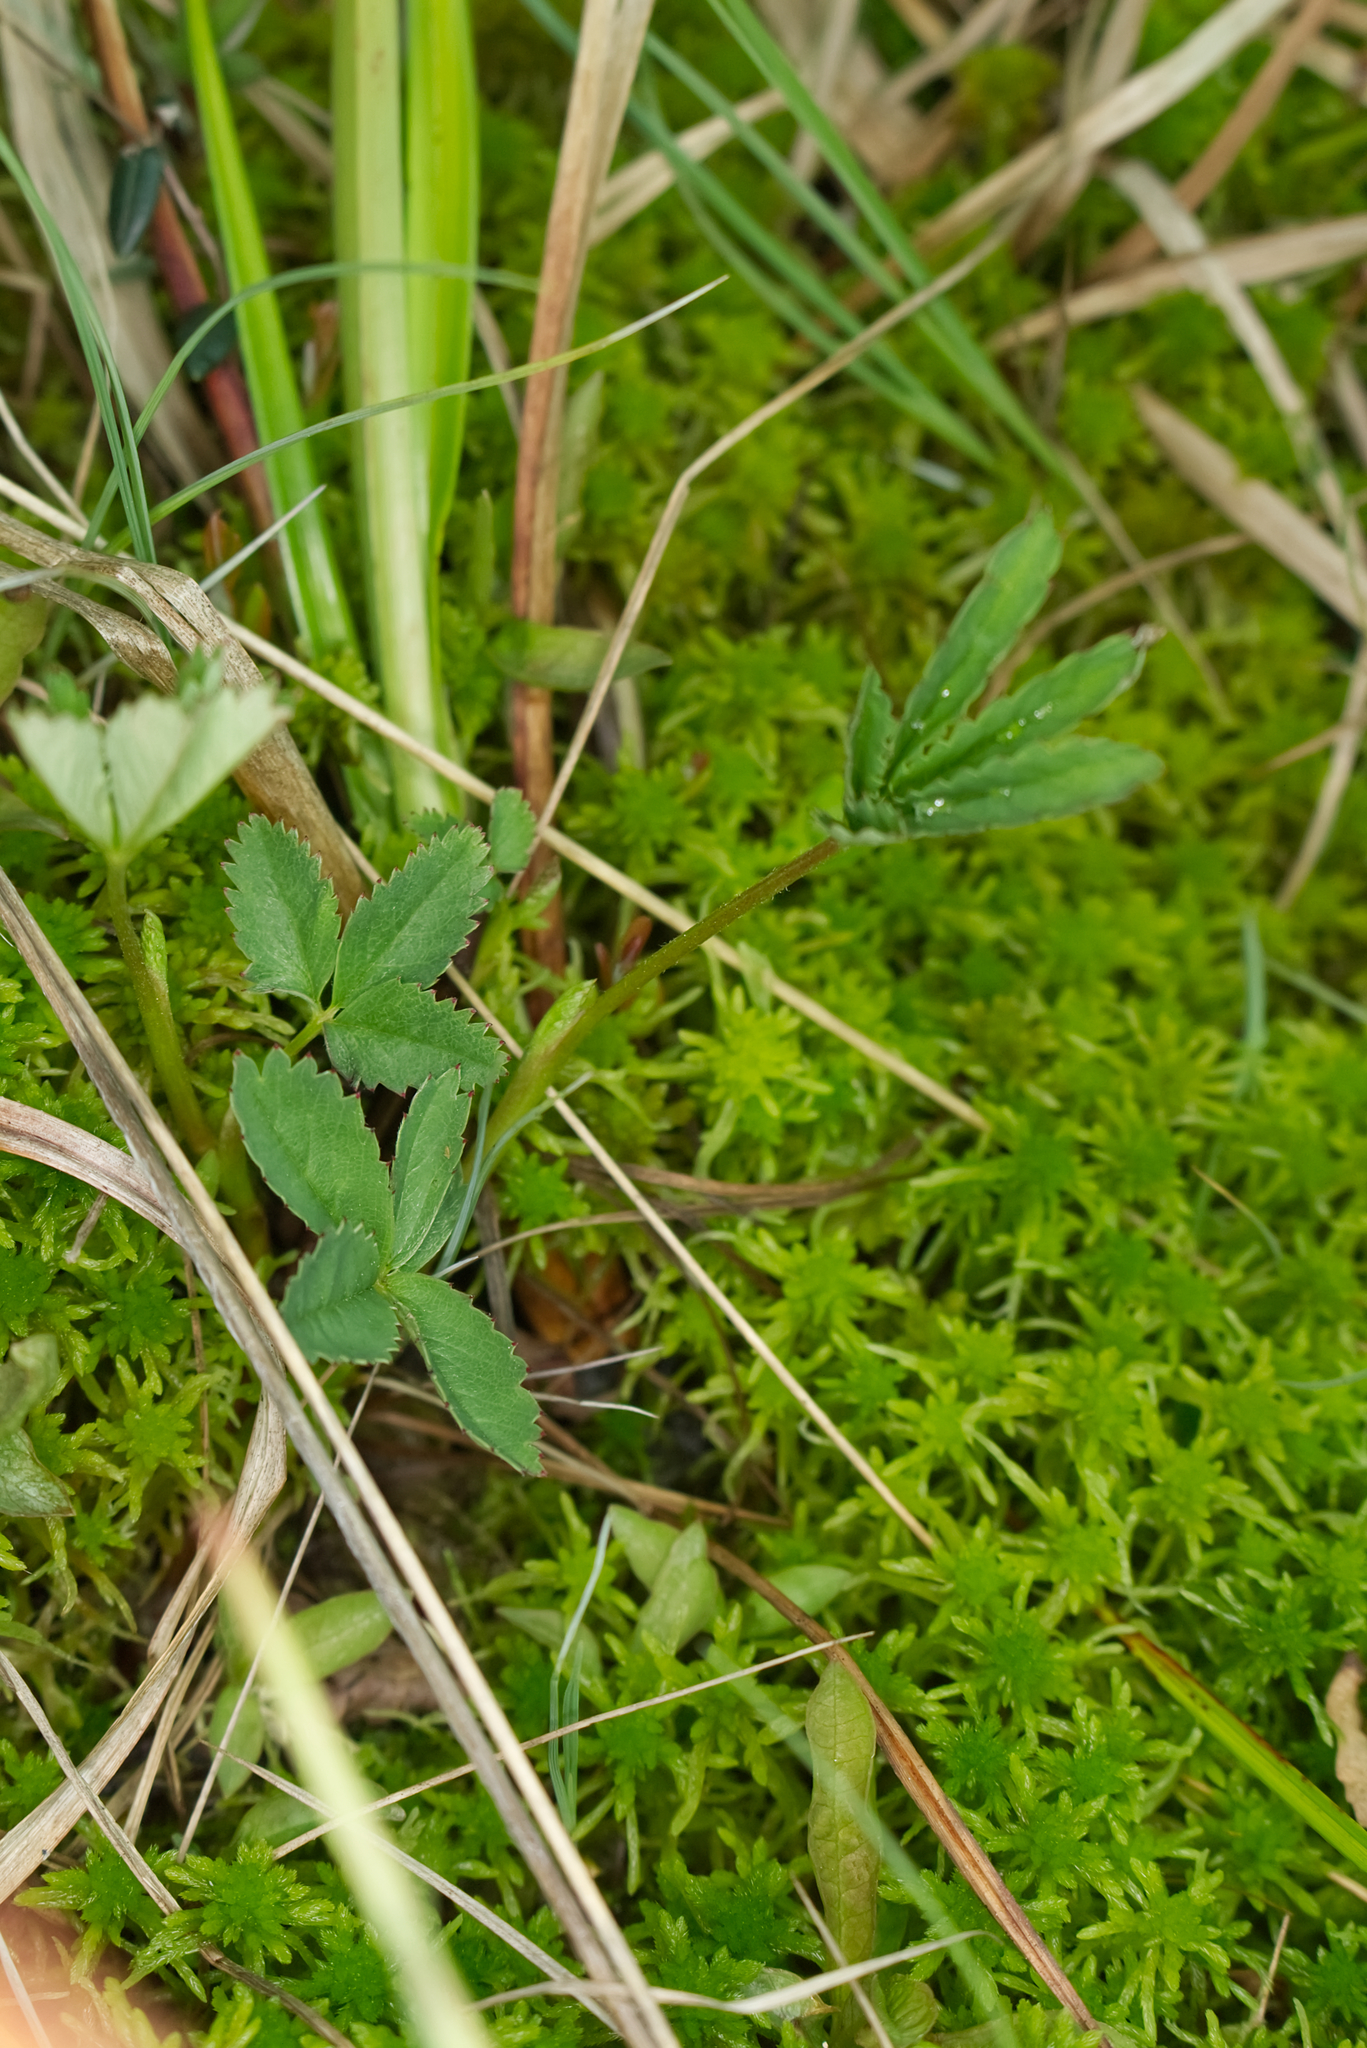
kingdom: Plantae
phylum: Tracheophyta
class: Magnoliopsida
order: Rosales
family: Rosaceae
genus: Comarum
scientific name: Comarum palustre
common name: Marsh cinquefoil
